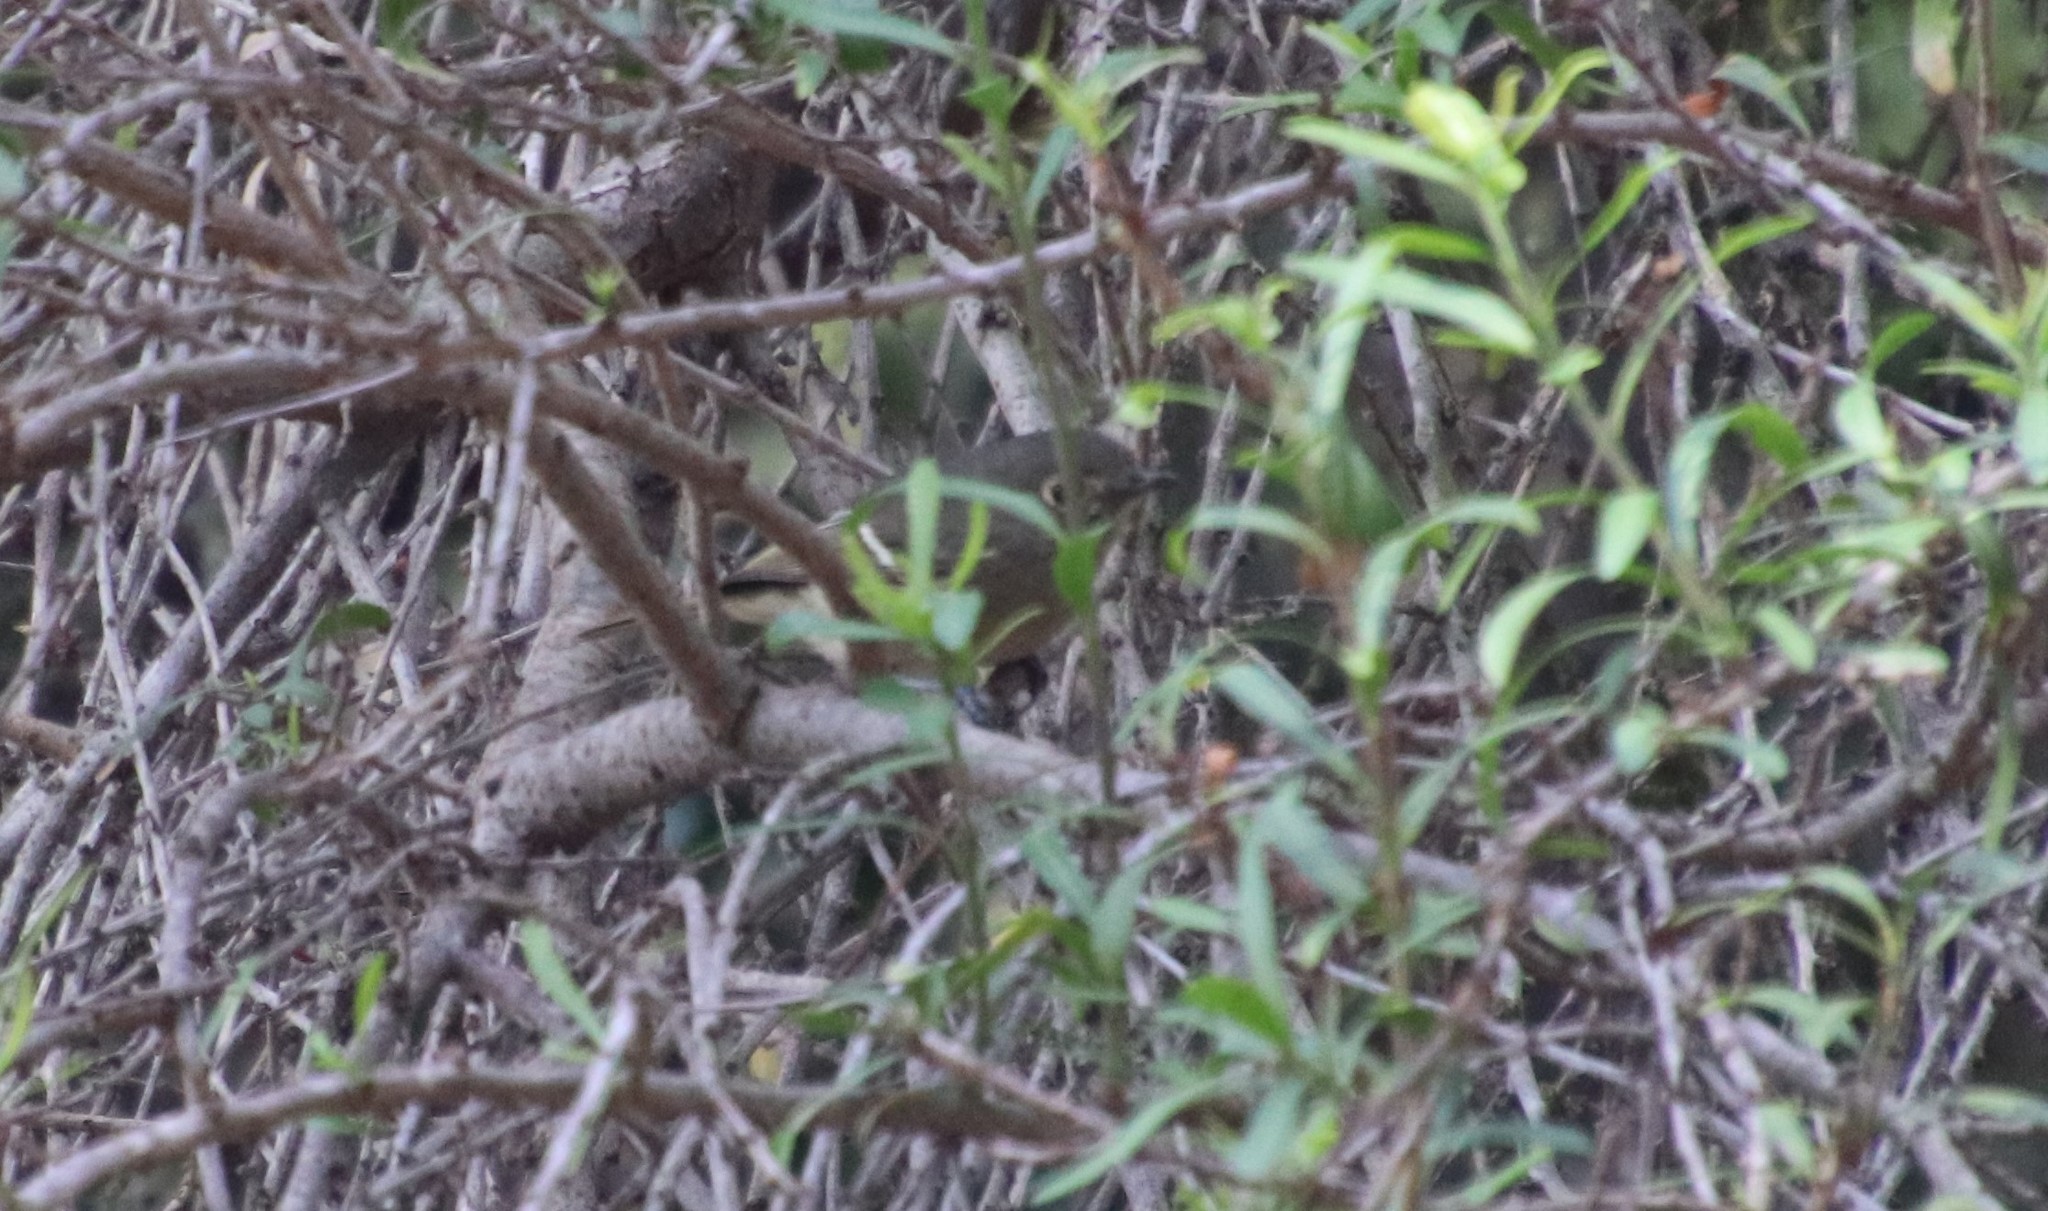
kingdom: Animalia
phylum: Chordata
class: Aves
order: Passeriformes
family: Vireonidae
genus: Vireo
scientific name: Vireo huttoni
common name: Hutton's vireo
